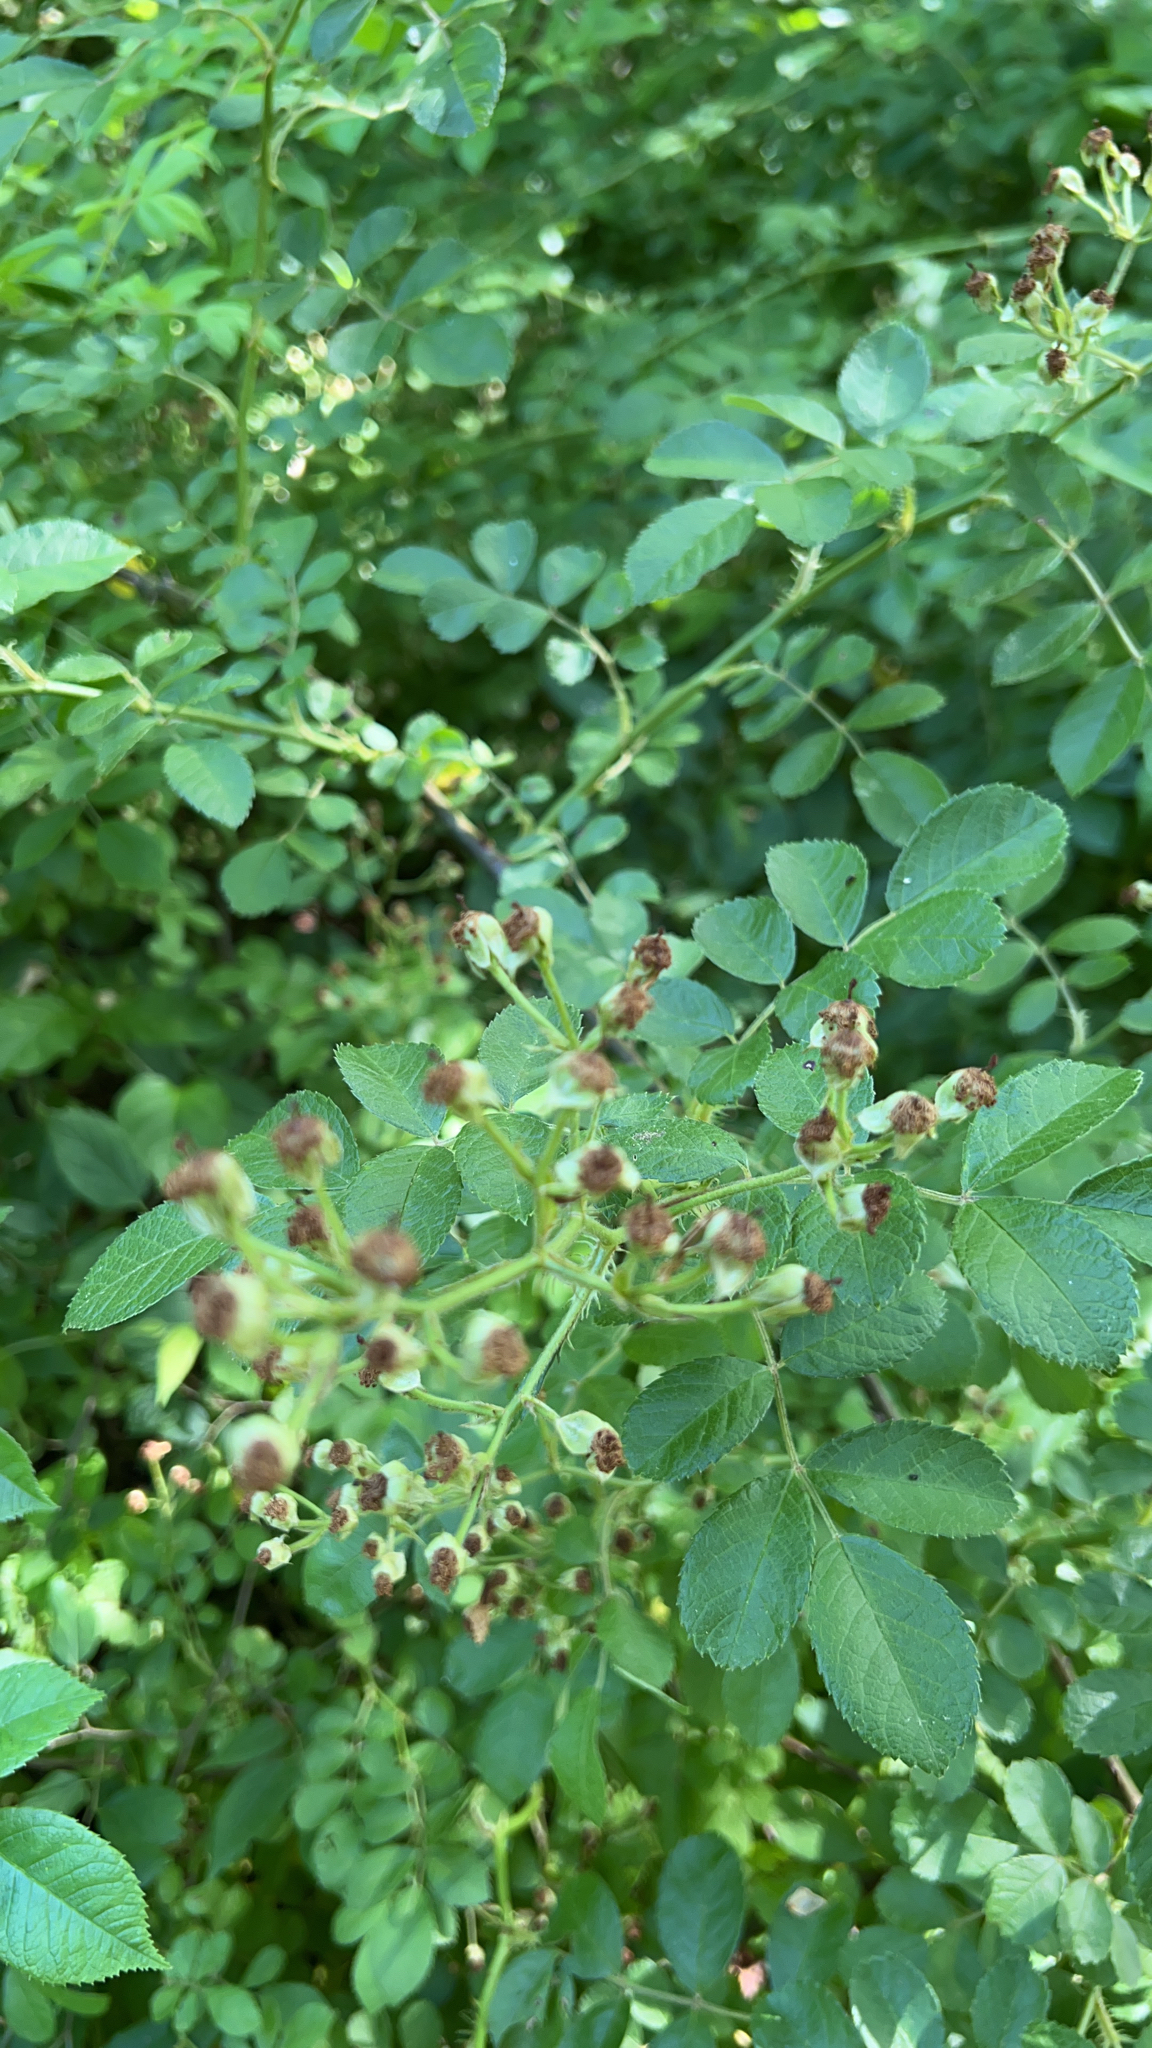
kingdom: Plantae
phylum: Tracheophyta
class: Magnoliopsida
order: Rosales
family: Rosaceae
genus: Rosa
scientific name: Rosa multiflora
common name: Multiflora rose
